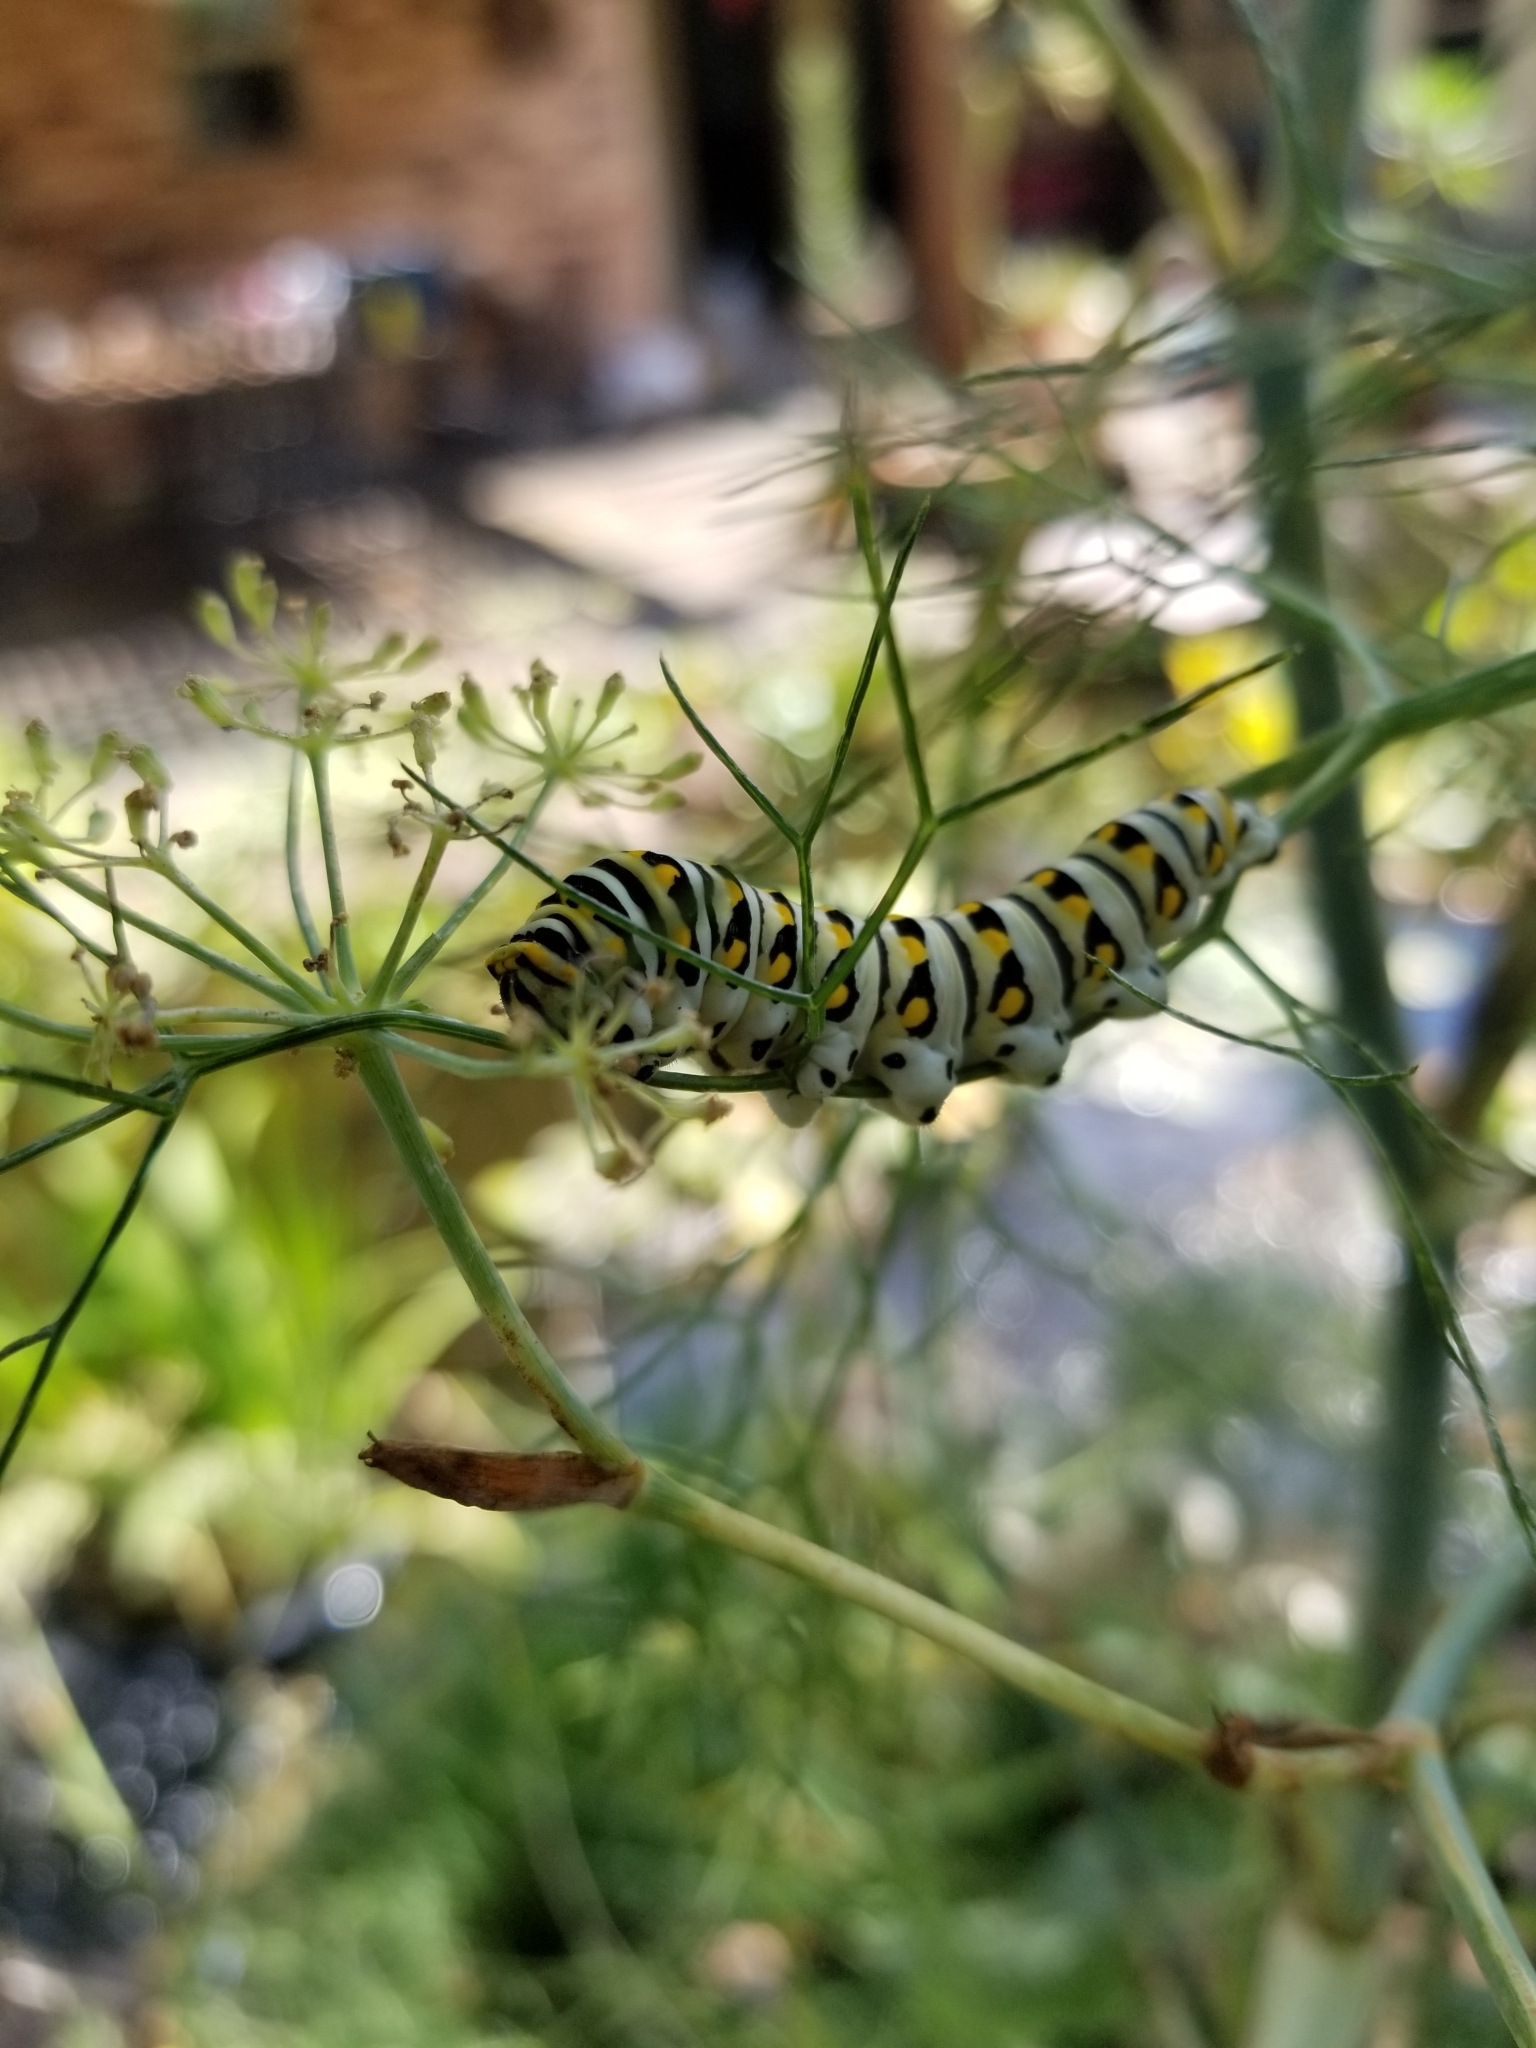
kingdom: Animalia
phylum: Arthropoda
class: Insecta
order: Lepidoptera
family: Papilionidae
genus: Papilio
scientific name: Papilio polyxenes
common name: Black swallowtail
